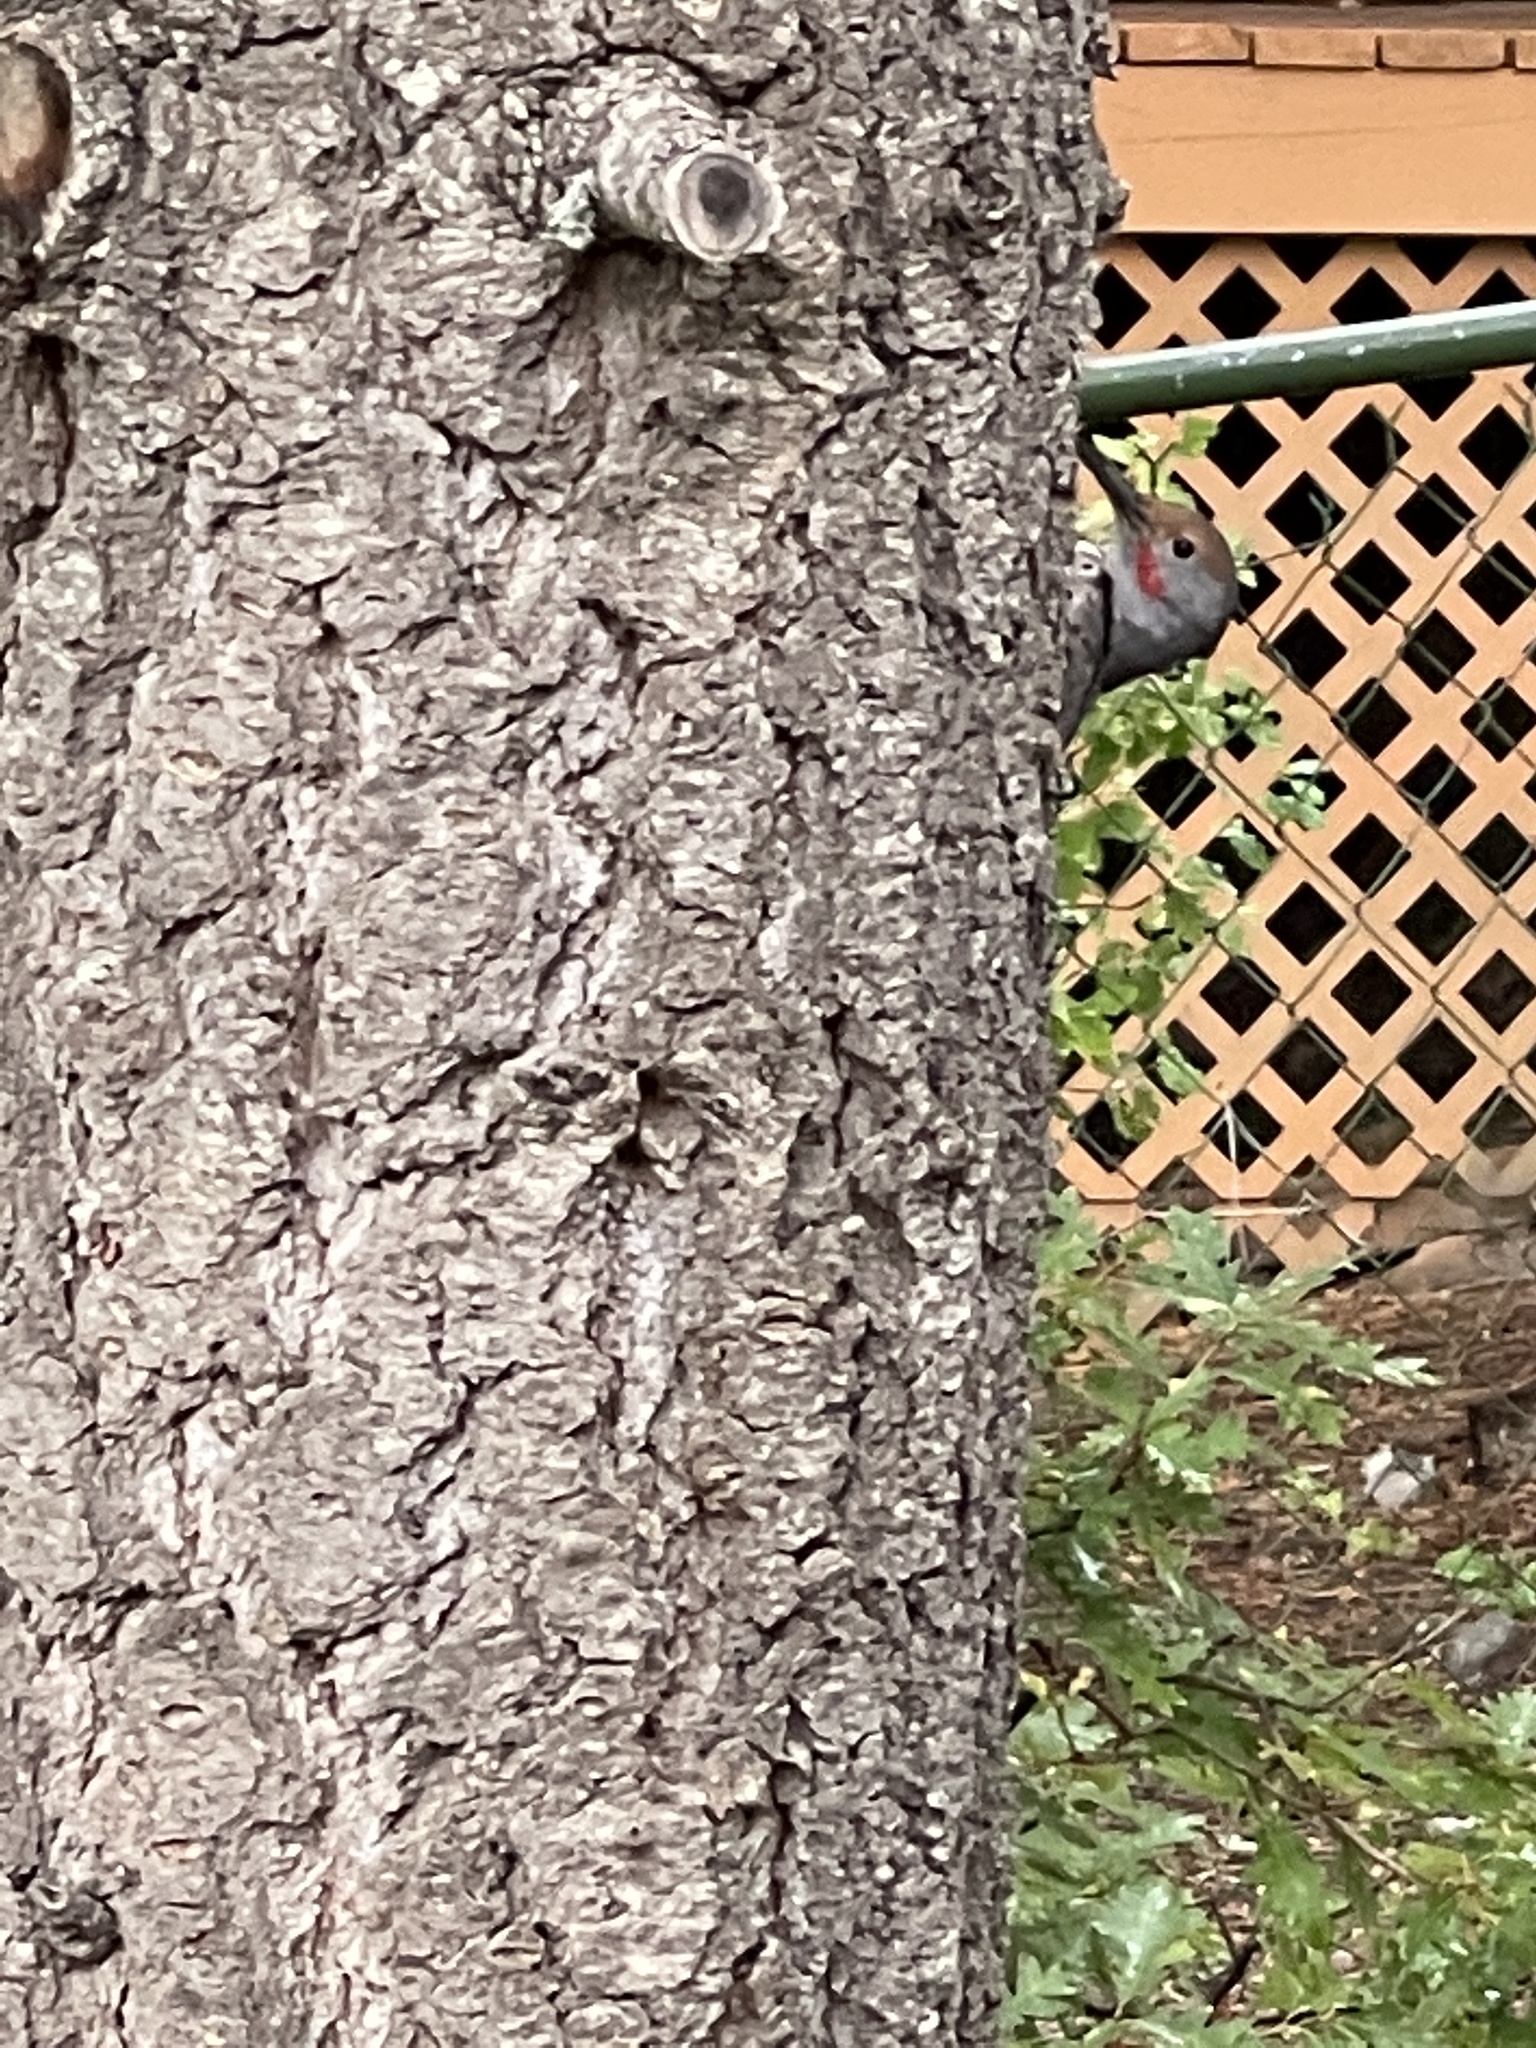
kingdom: Animalia
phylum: Chordata
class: Aves
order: Piciformes
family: Picidae
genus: Colaptes
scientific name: Colaptes auratus
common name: Northern flicker
